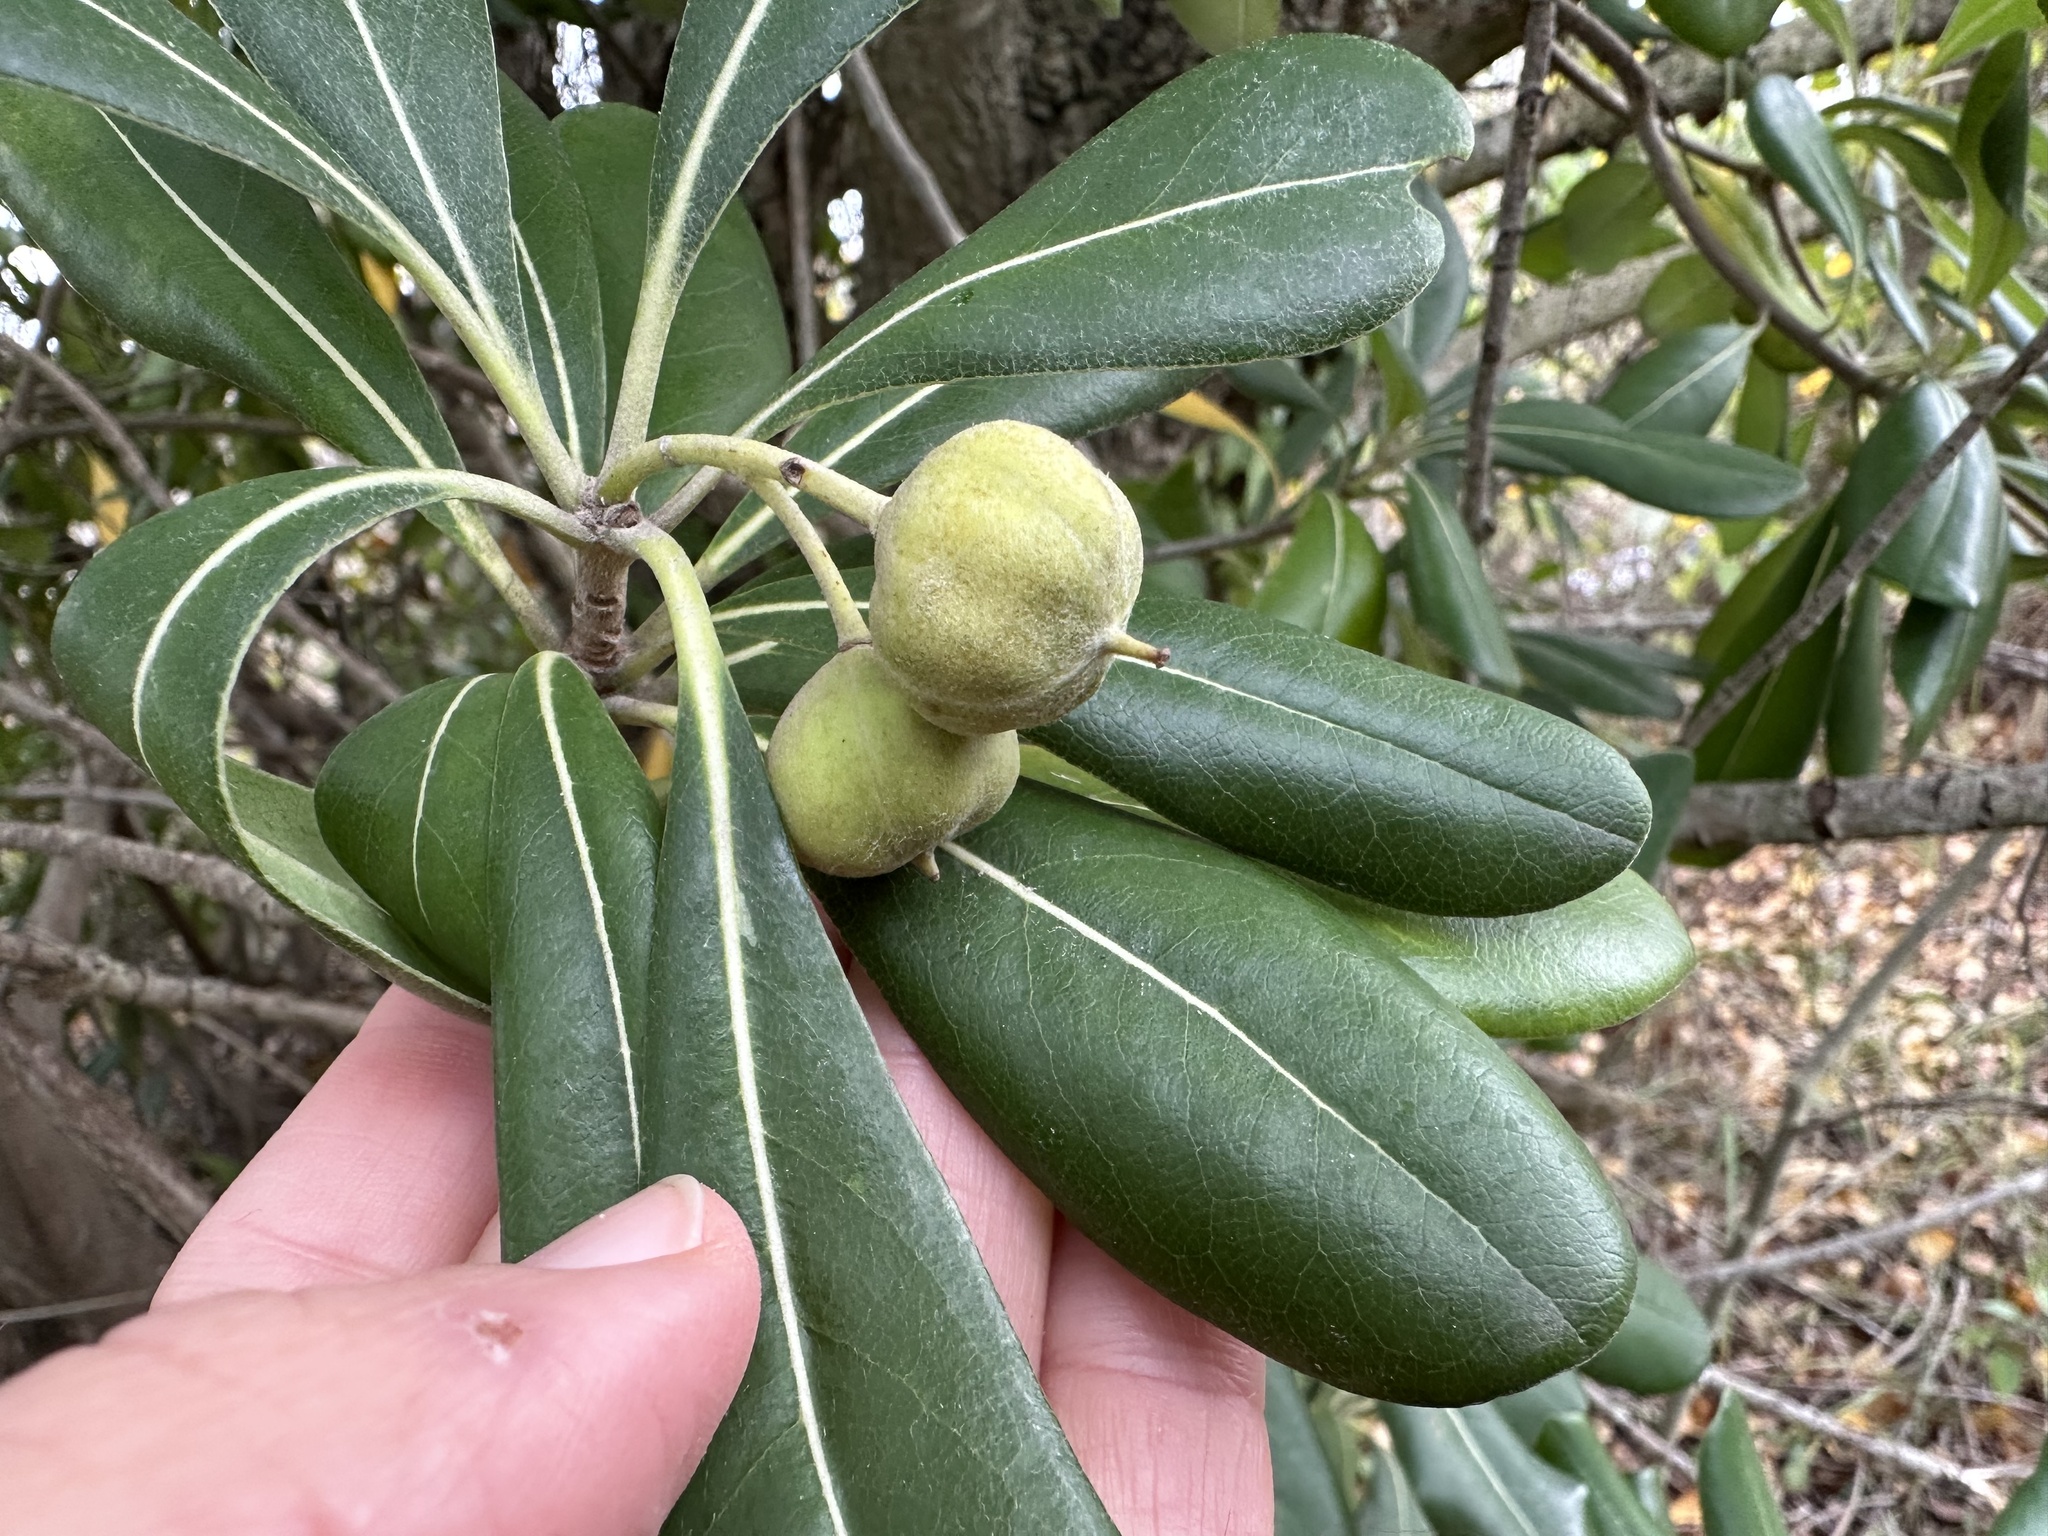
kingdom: Plantae
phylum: Tracheophyta
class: Magnoliopsida
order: Apiales
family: Pittosporaceae
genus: Pittosporum
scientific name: Pittosporum tobira
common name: Japanese cheesewood
